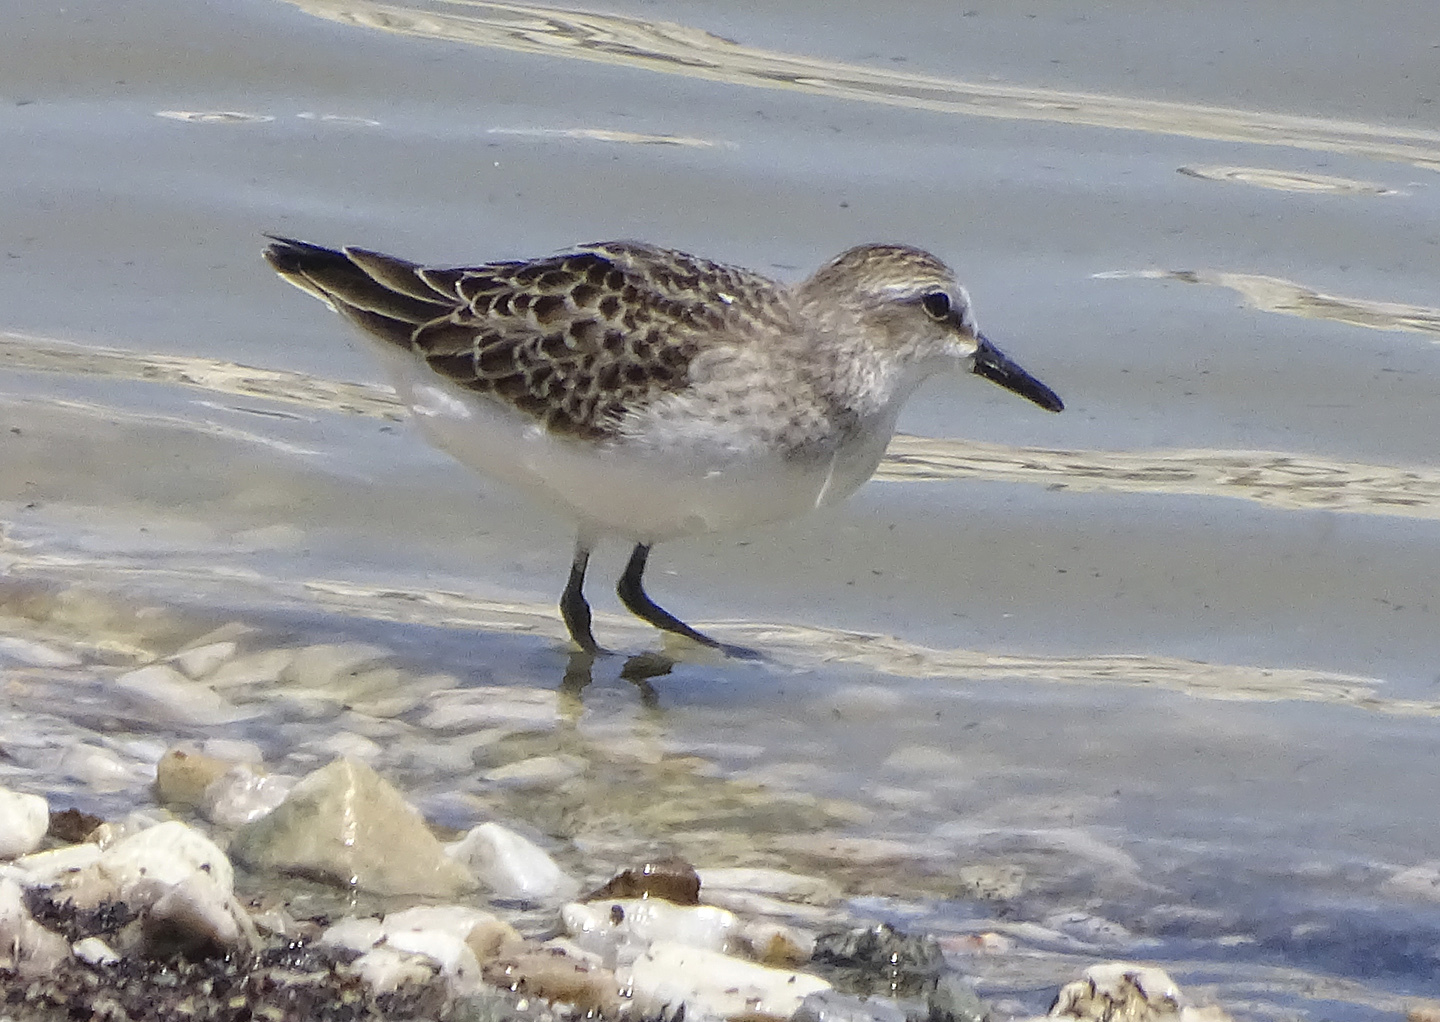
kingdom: Animalia
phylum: Chordata
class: Aves
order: Charadriiformes
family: Scolopacidae
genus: Calidris
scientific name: Calidris pusilla
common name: Semipalmated sandpiper
